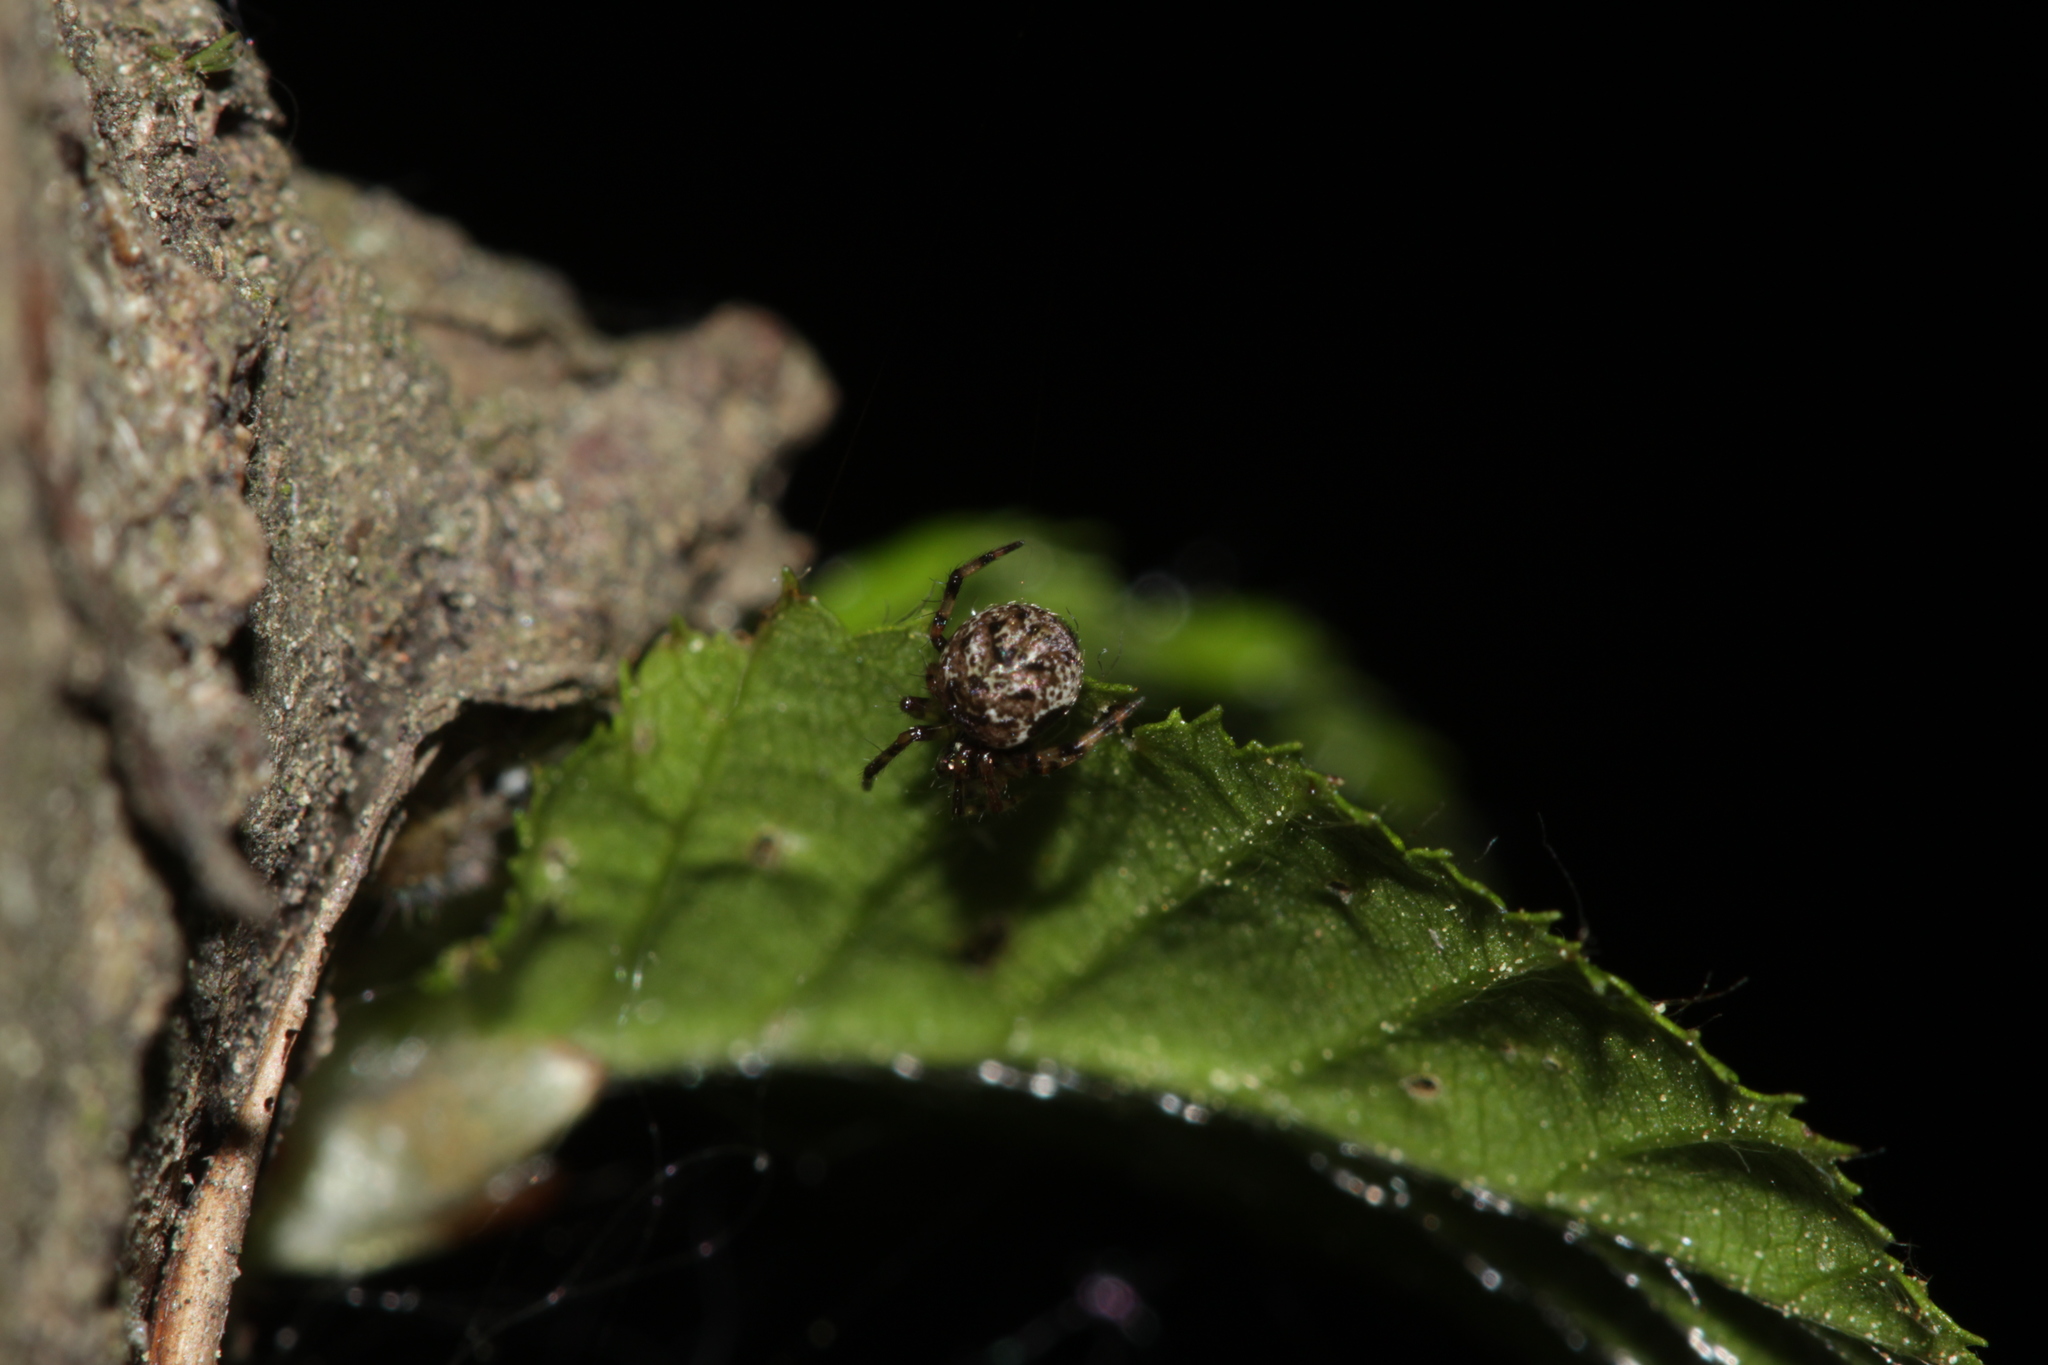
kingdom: Animalia
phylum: Arthropoda
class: Arachnida
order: Araneae
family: Theridiidae
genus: Dipoena
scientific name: Dipoena melanogaster
